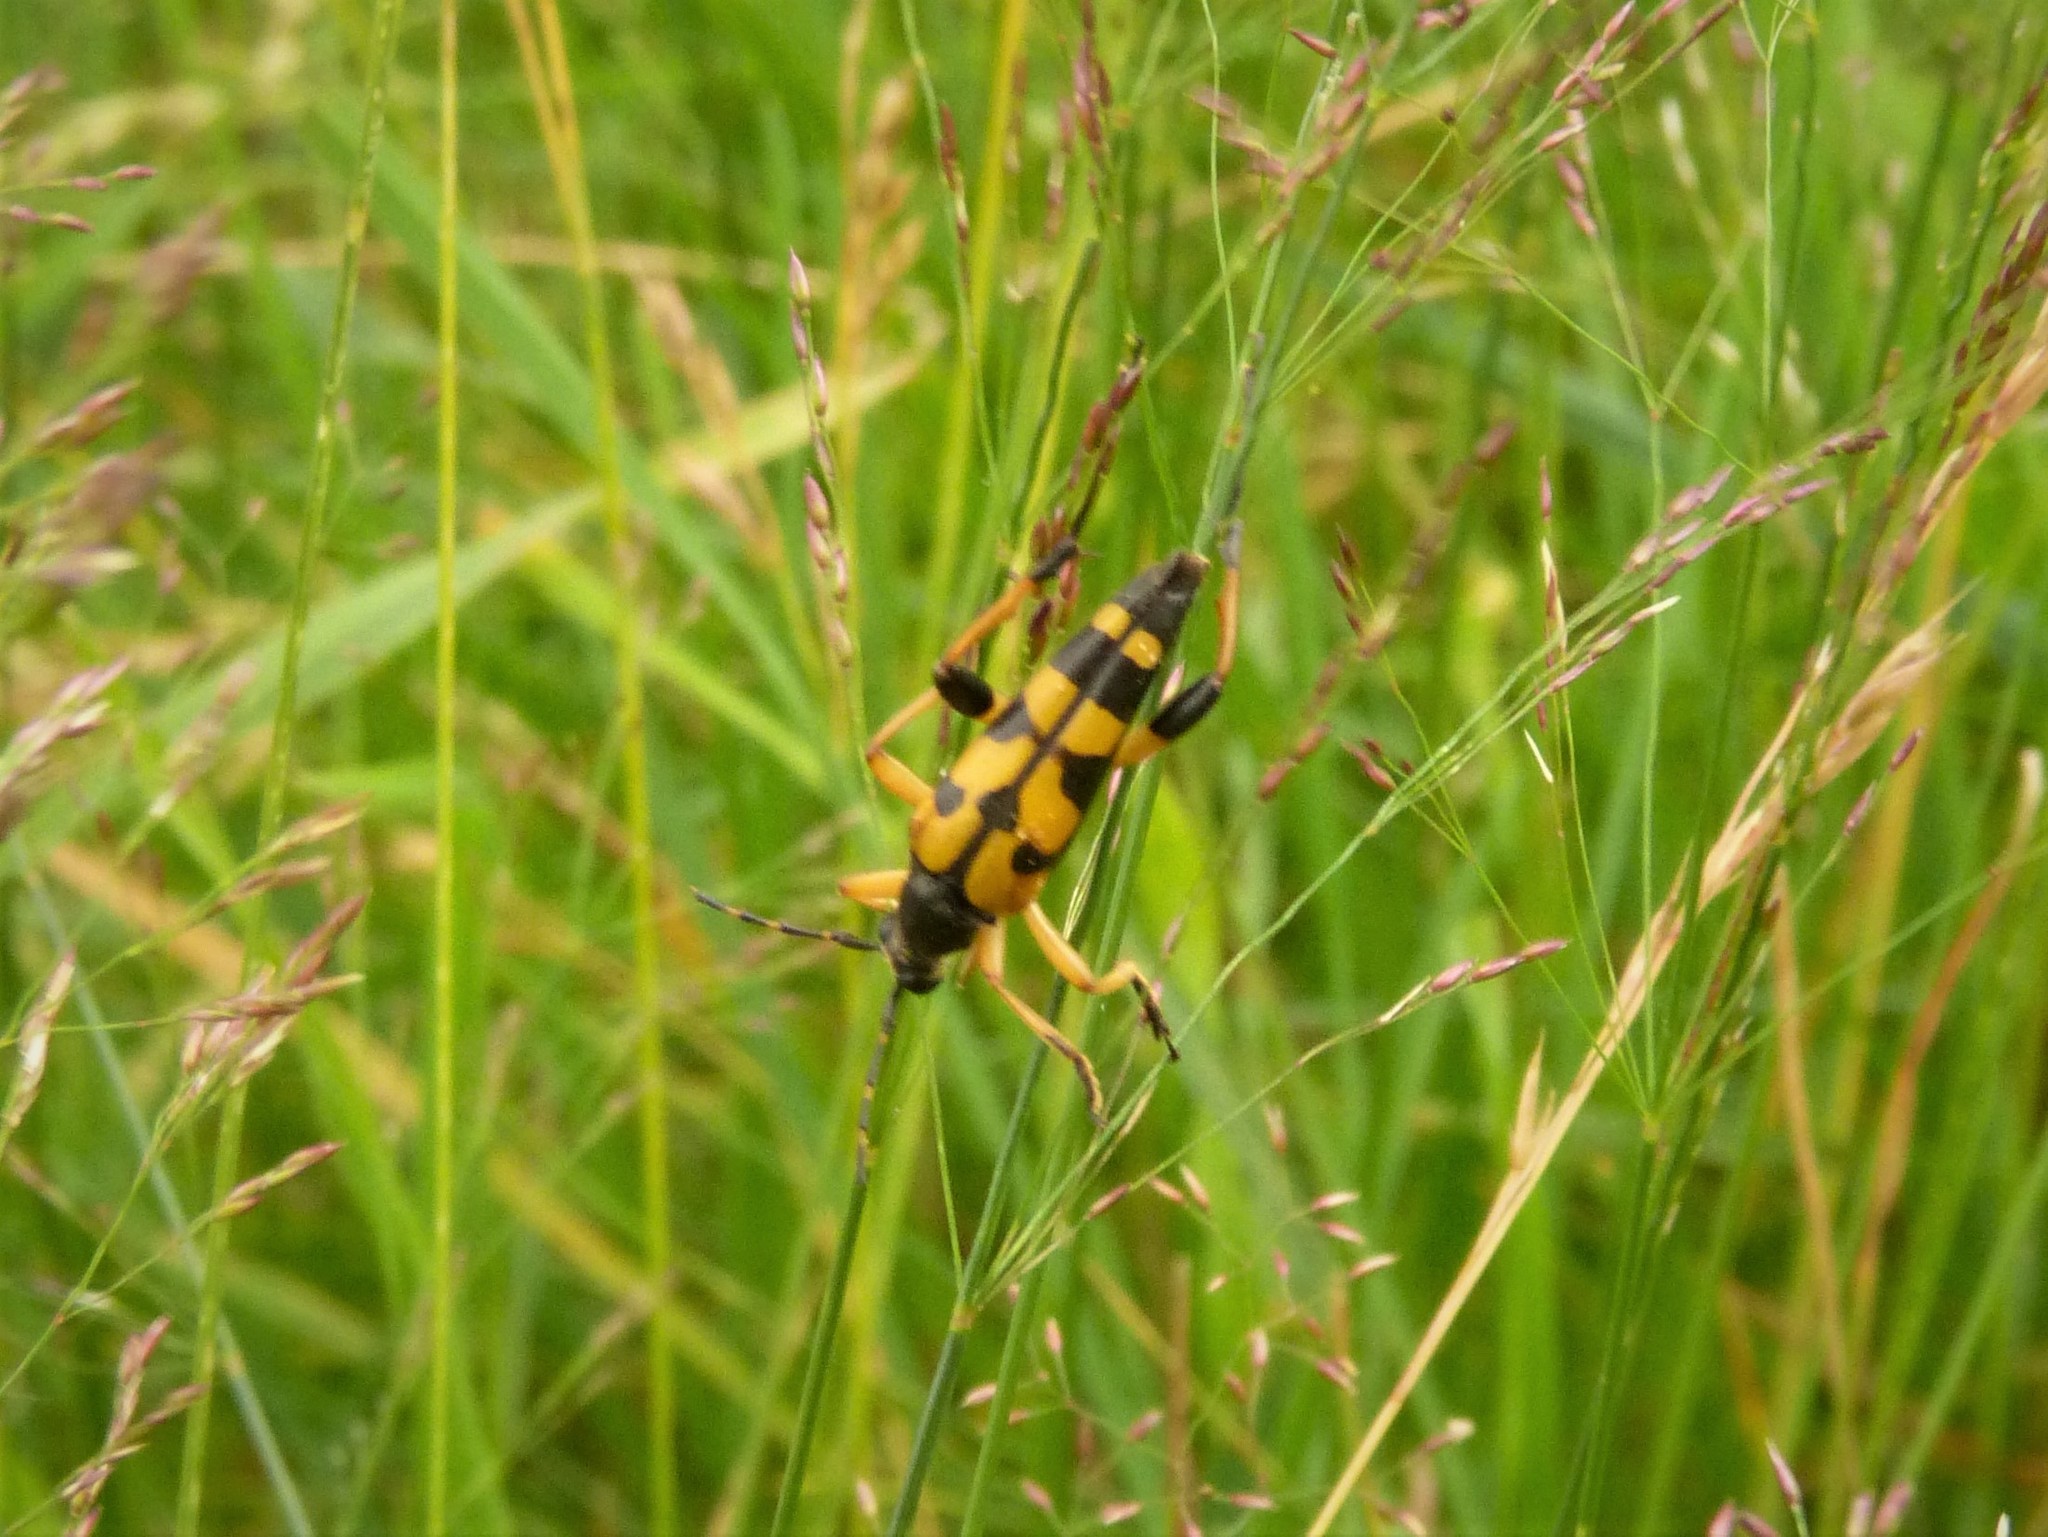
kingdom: Animalia
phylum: Arthropoda
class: Insecta
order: Coleoptera
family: Cerambycidae
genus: Rutpela
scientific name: Rutpela maculata
